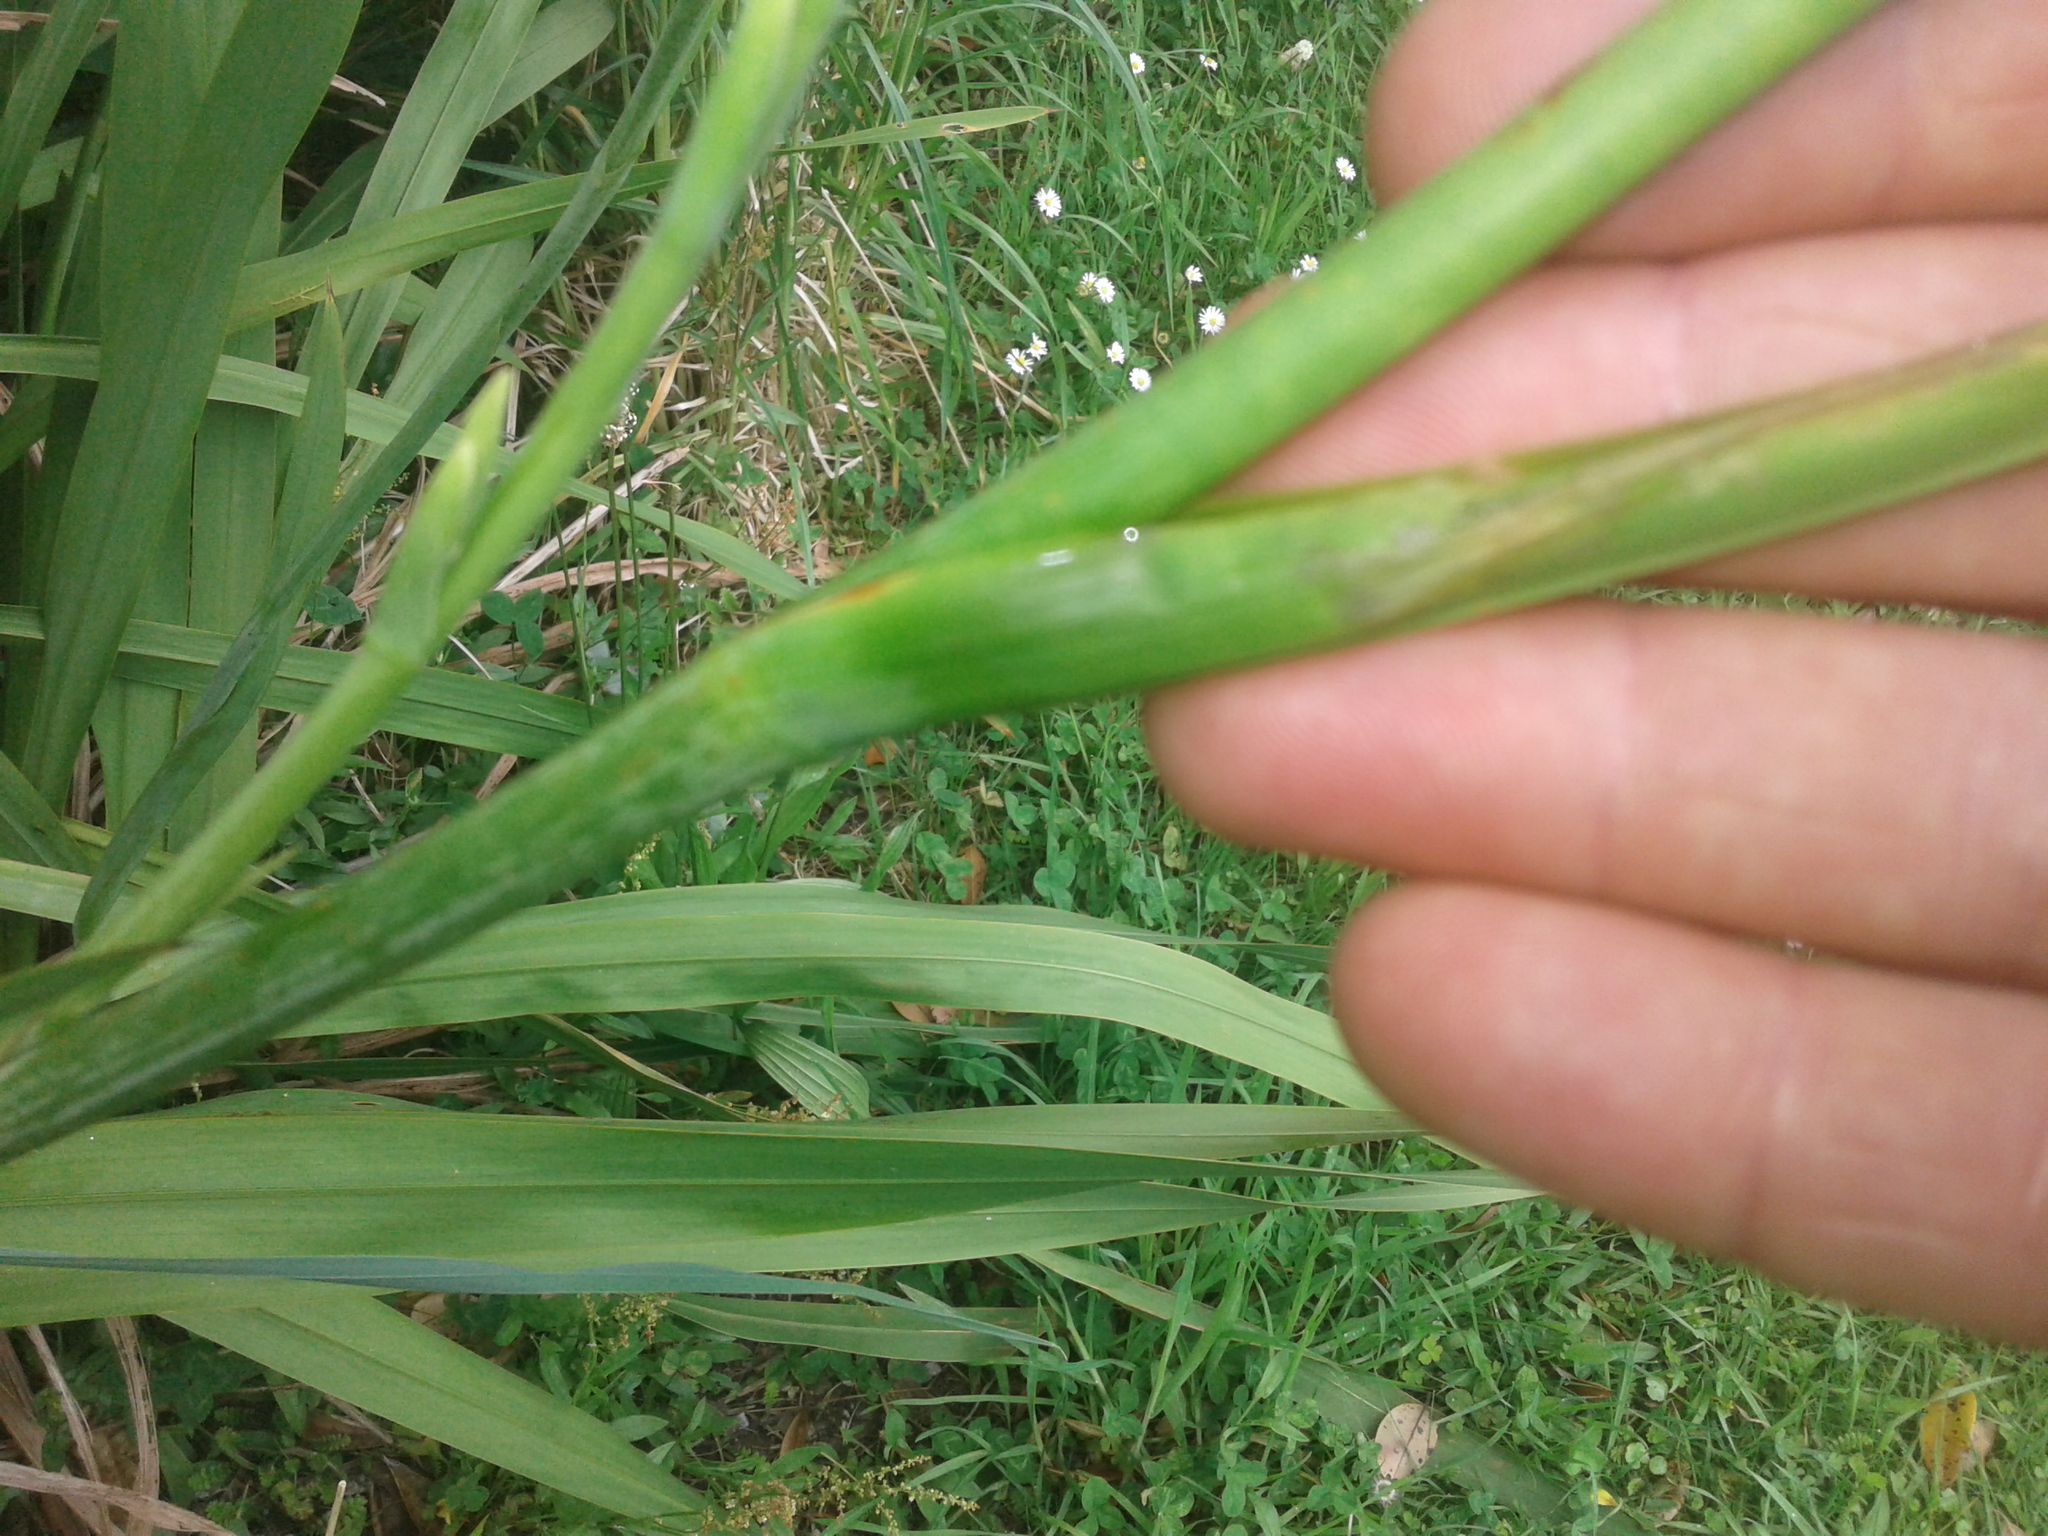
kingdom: Plantae
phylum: Tracheophyta
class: Liliopsida
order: Asparagales
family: Iridaceae
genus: Watsonia
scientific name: Watsonia meriana
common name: Bulbil bugle-lily
